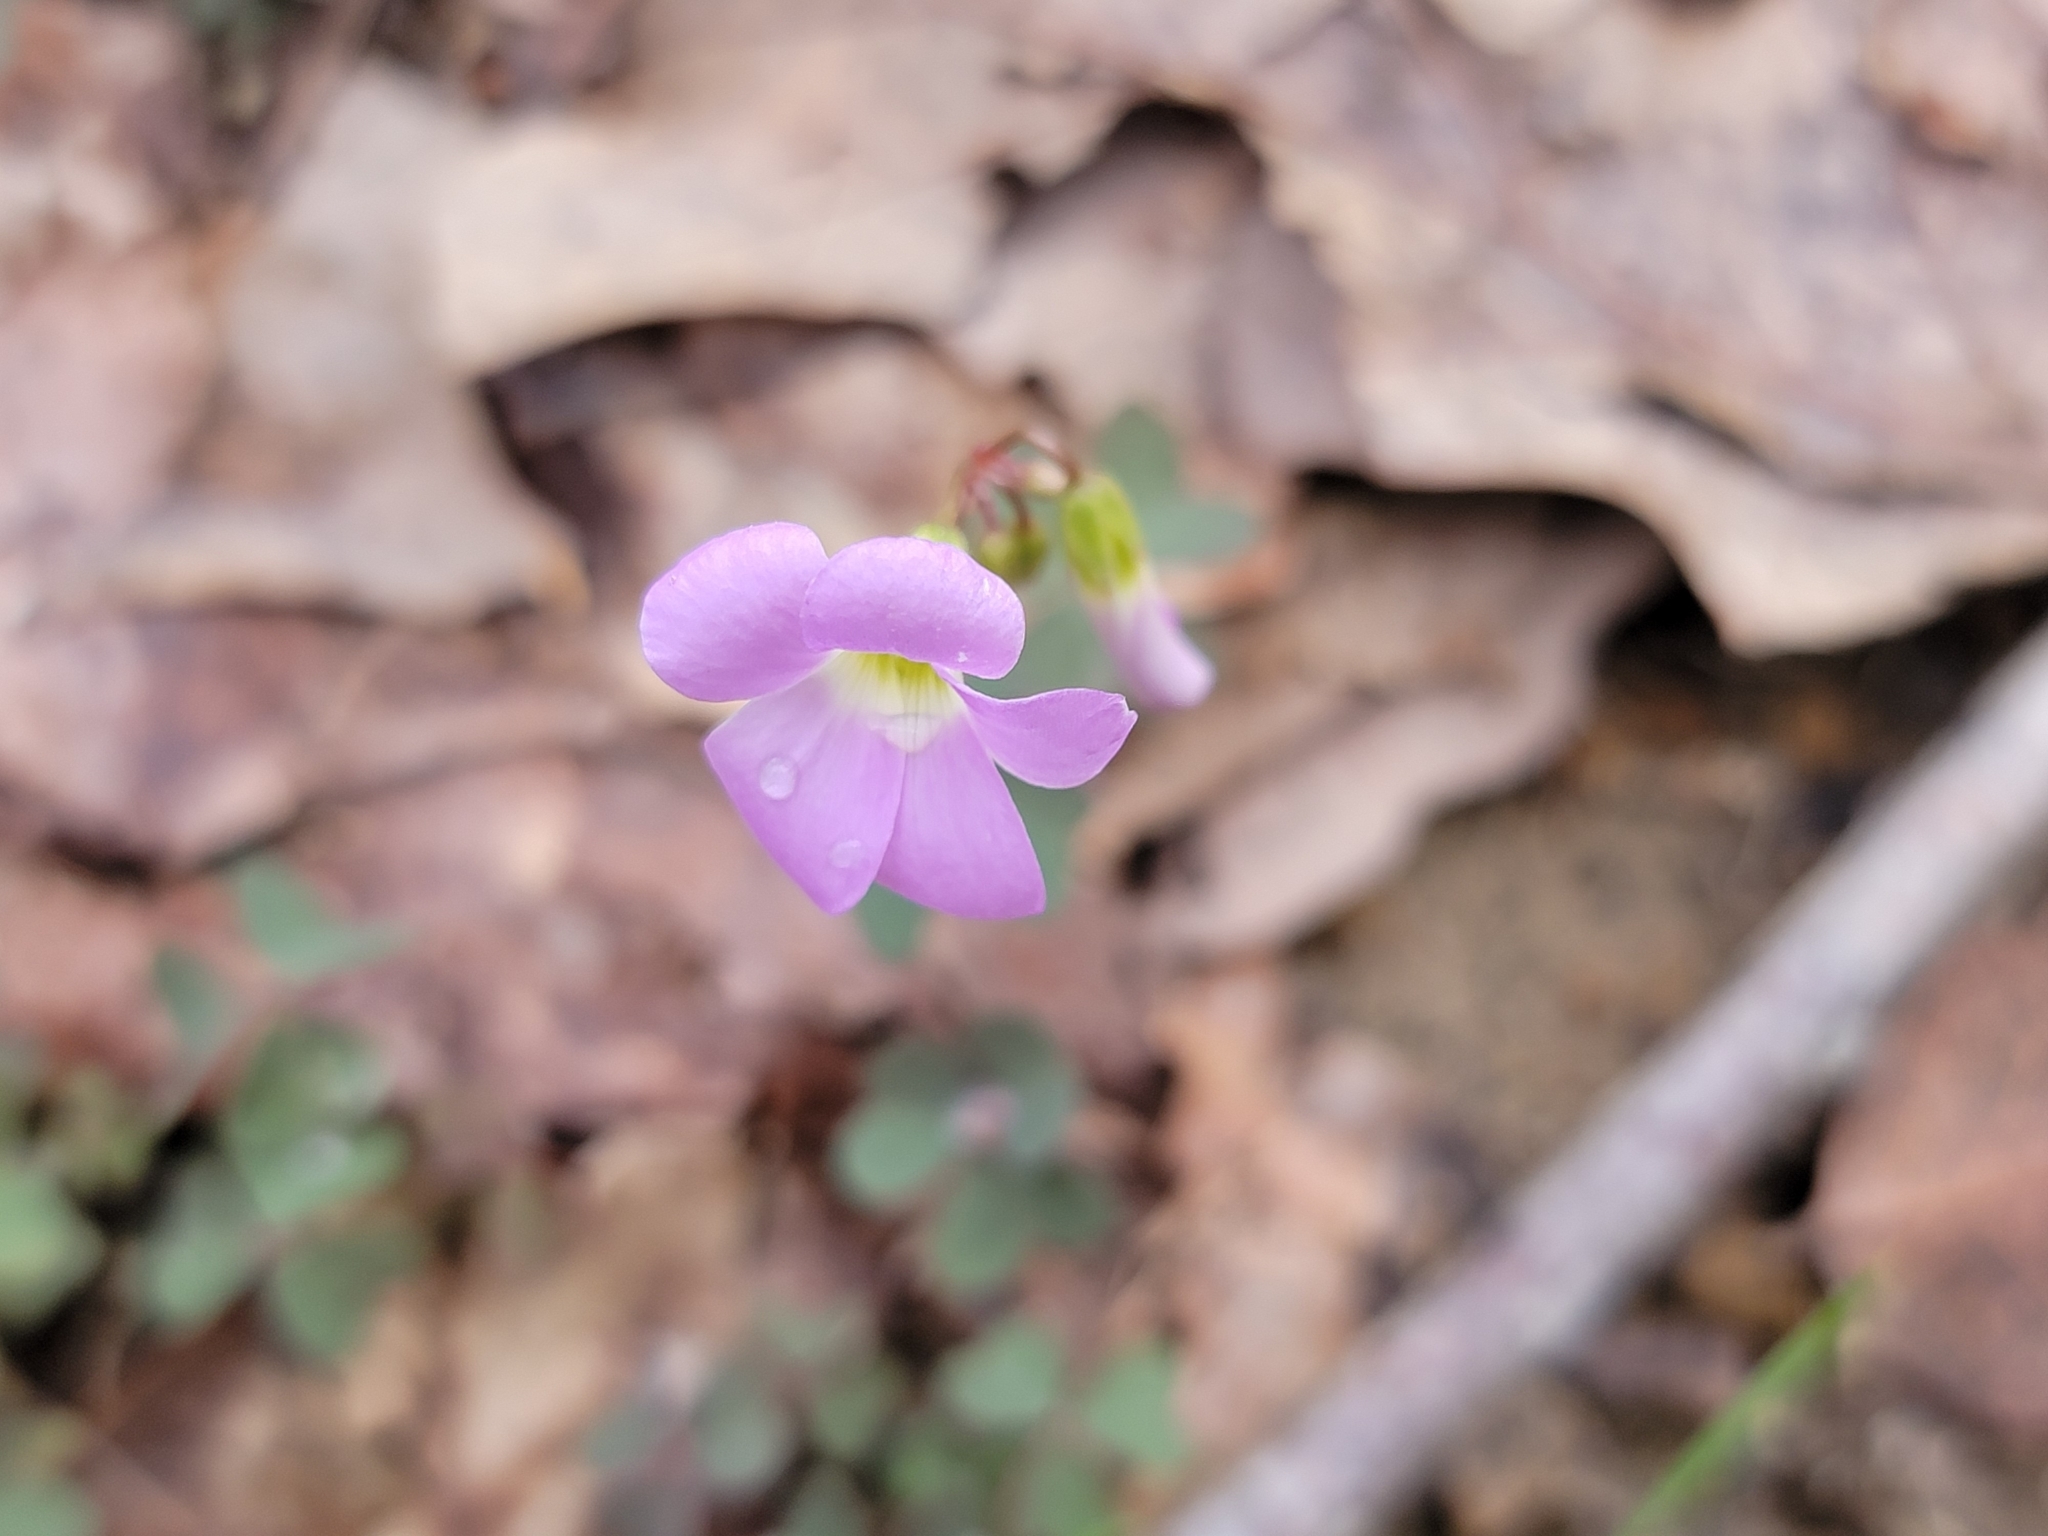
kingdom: Plantae
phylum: Tracheophyta
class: Magnoliopsida
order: Oxalidales
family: Oxalidaceae
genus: Oxalis
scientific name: Oxalis violacea
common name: Violet wood-sorrel
